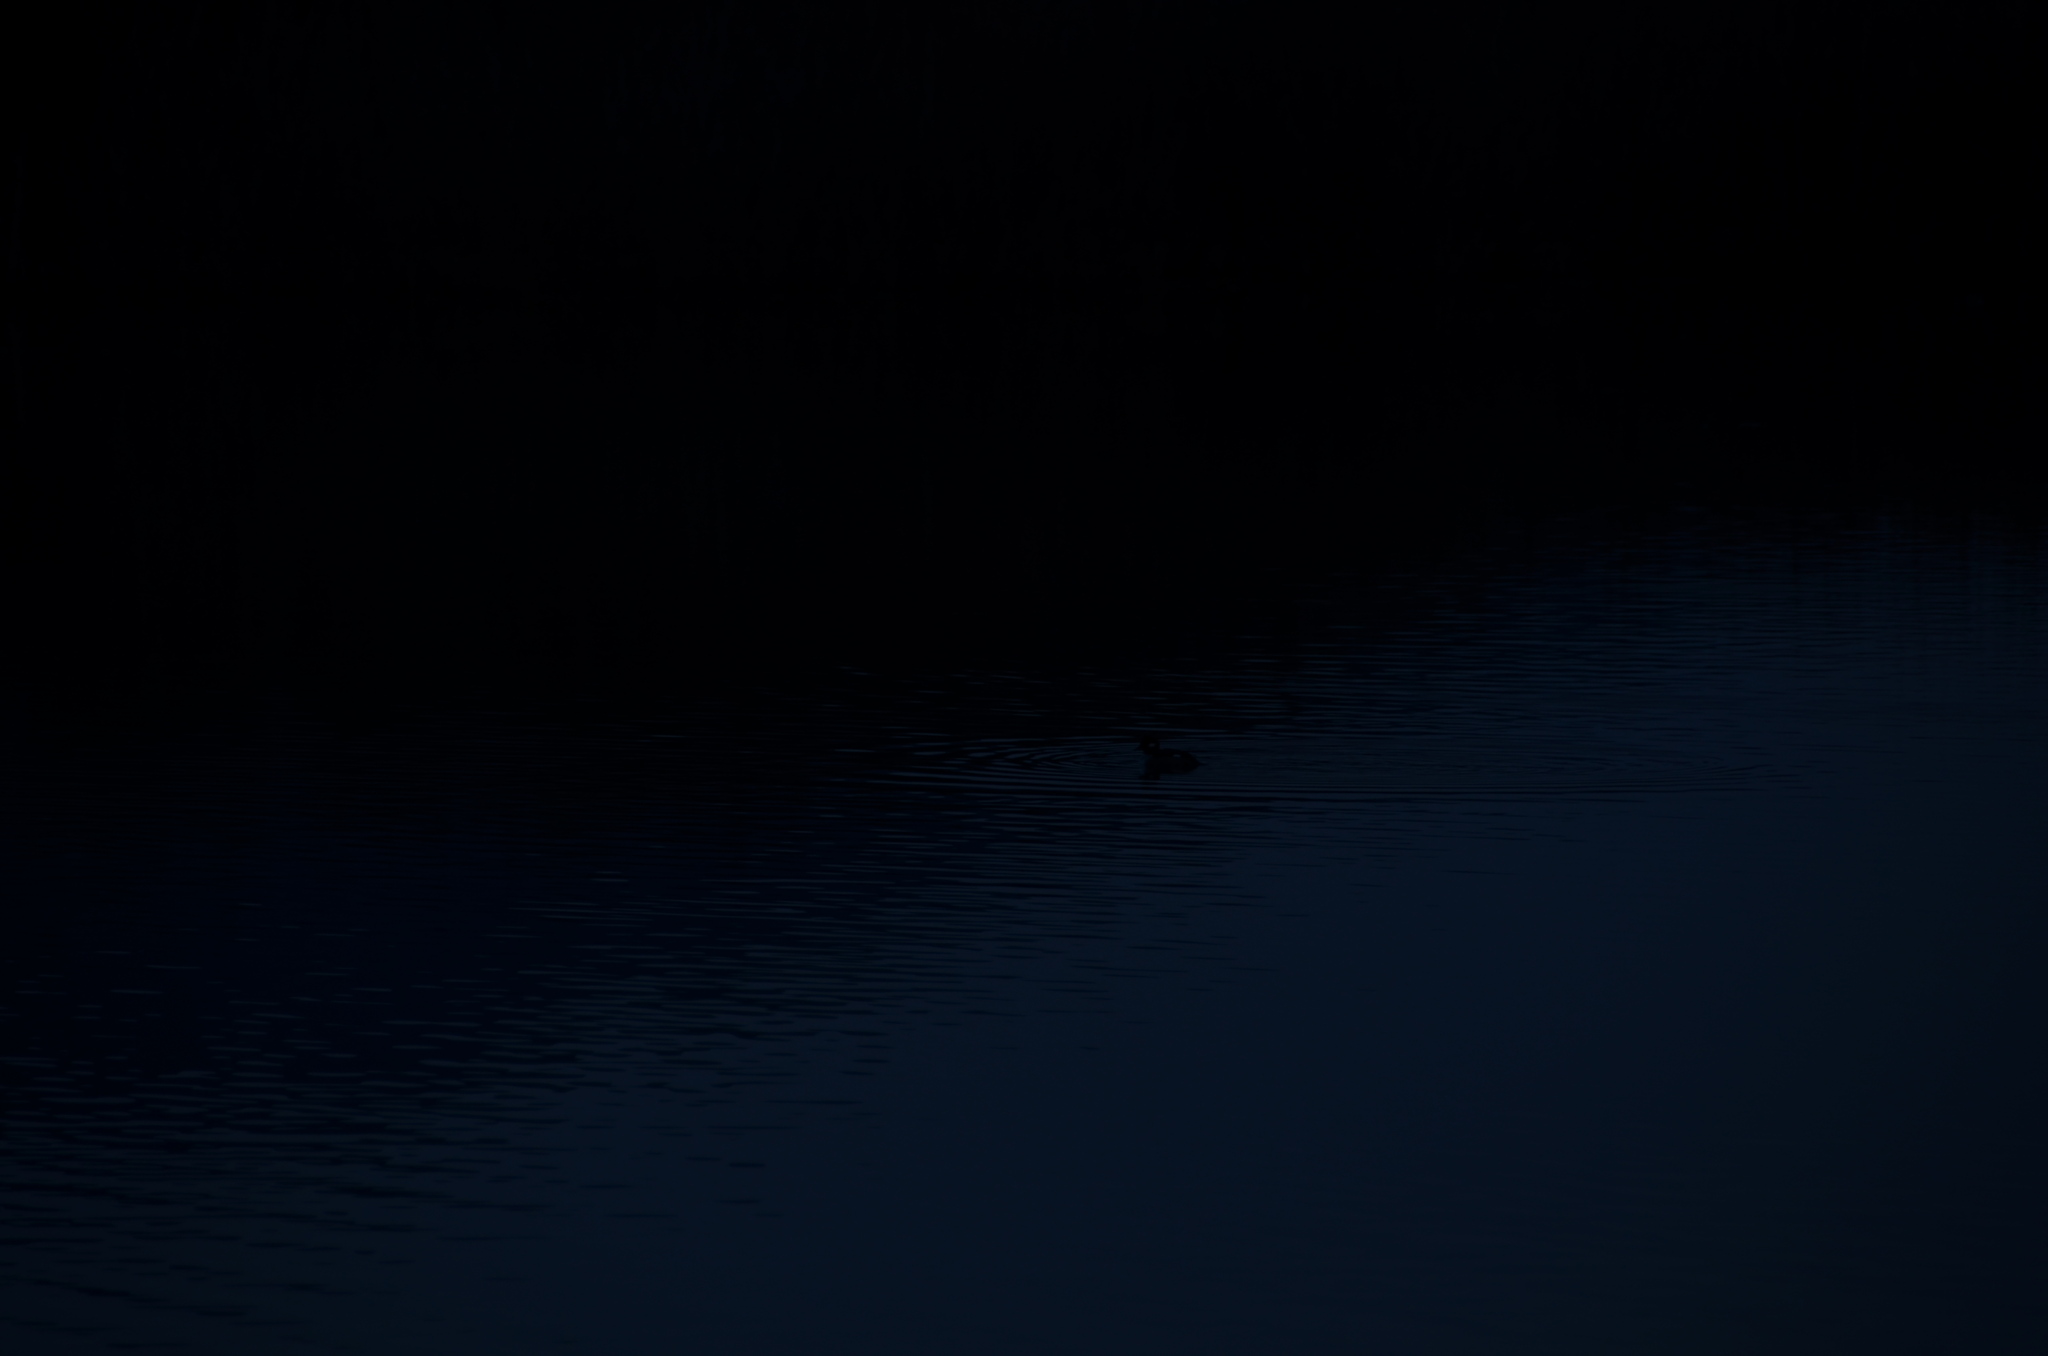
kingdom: Animalia
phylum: Chordata
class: Aves
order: Anseriformes
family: Anatidae
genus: Bucephala
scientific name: Bucephala albeola
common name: Bufflehead
